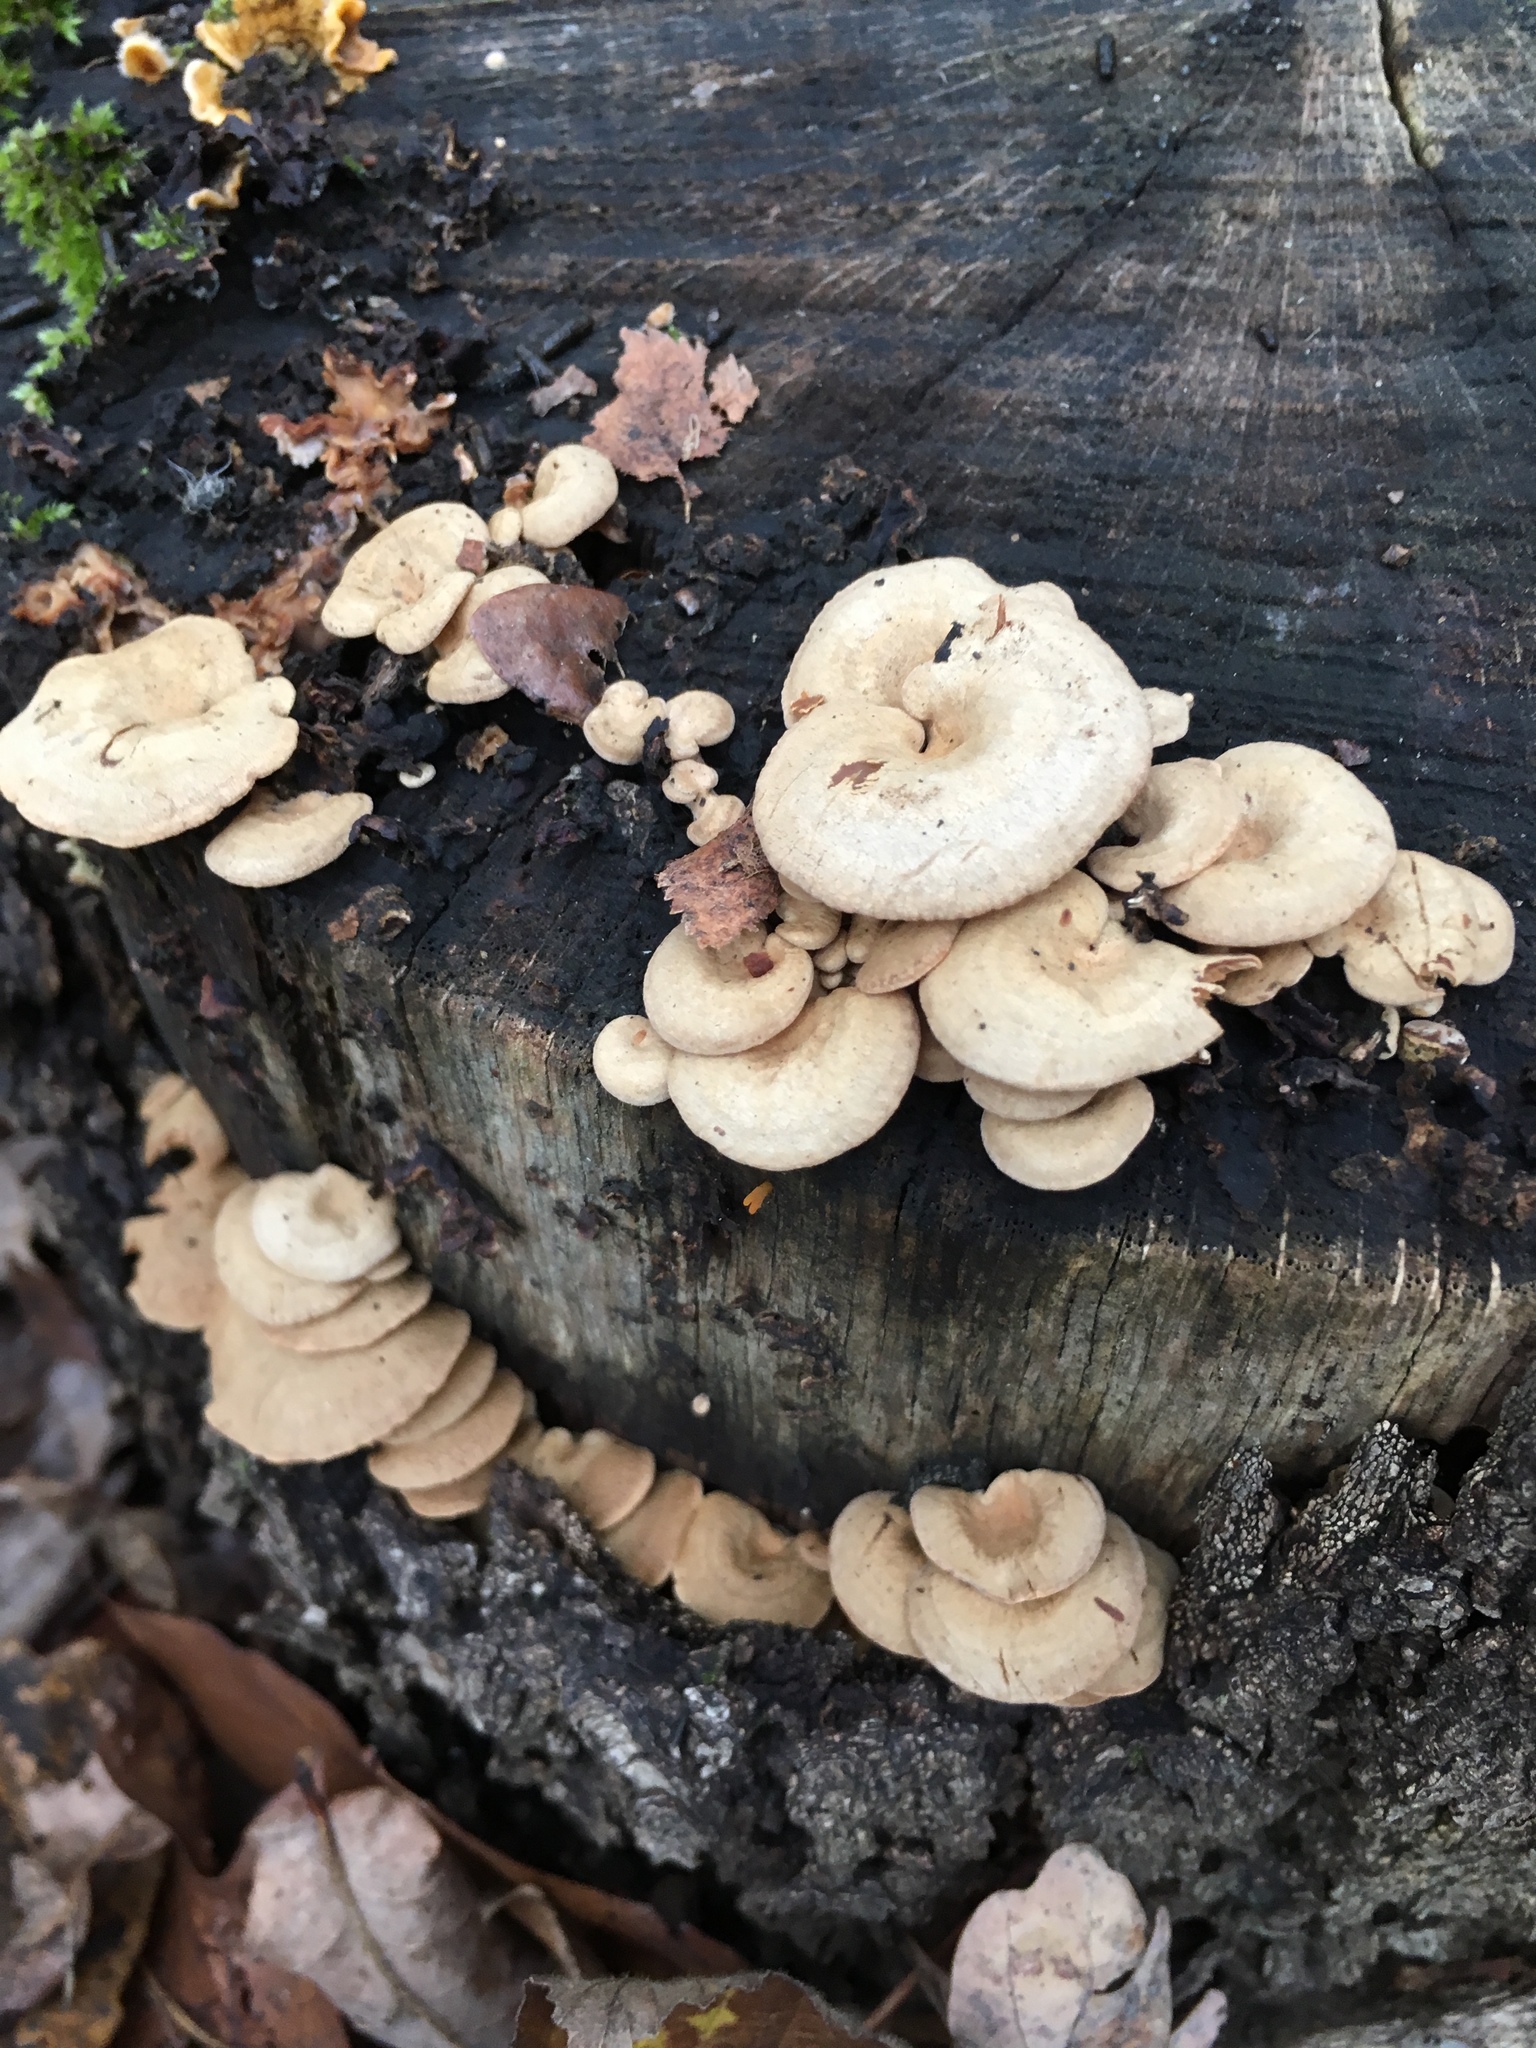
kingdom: Fungi
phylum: Basidiomycota
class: Agaricomycetes
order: Agaricales
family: Mycenaceae
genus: Panellus
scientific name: Panellus stipticus
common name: Bitter oysterling
